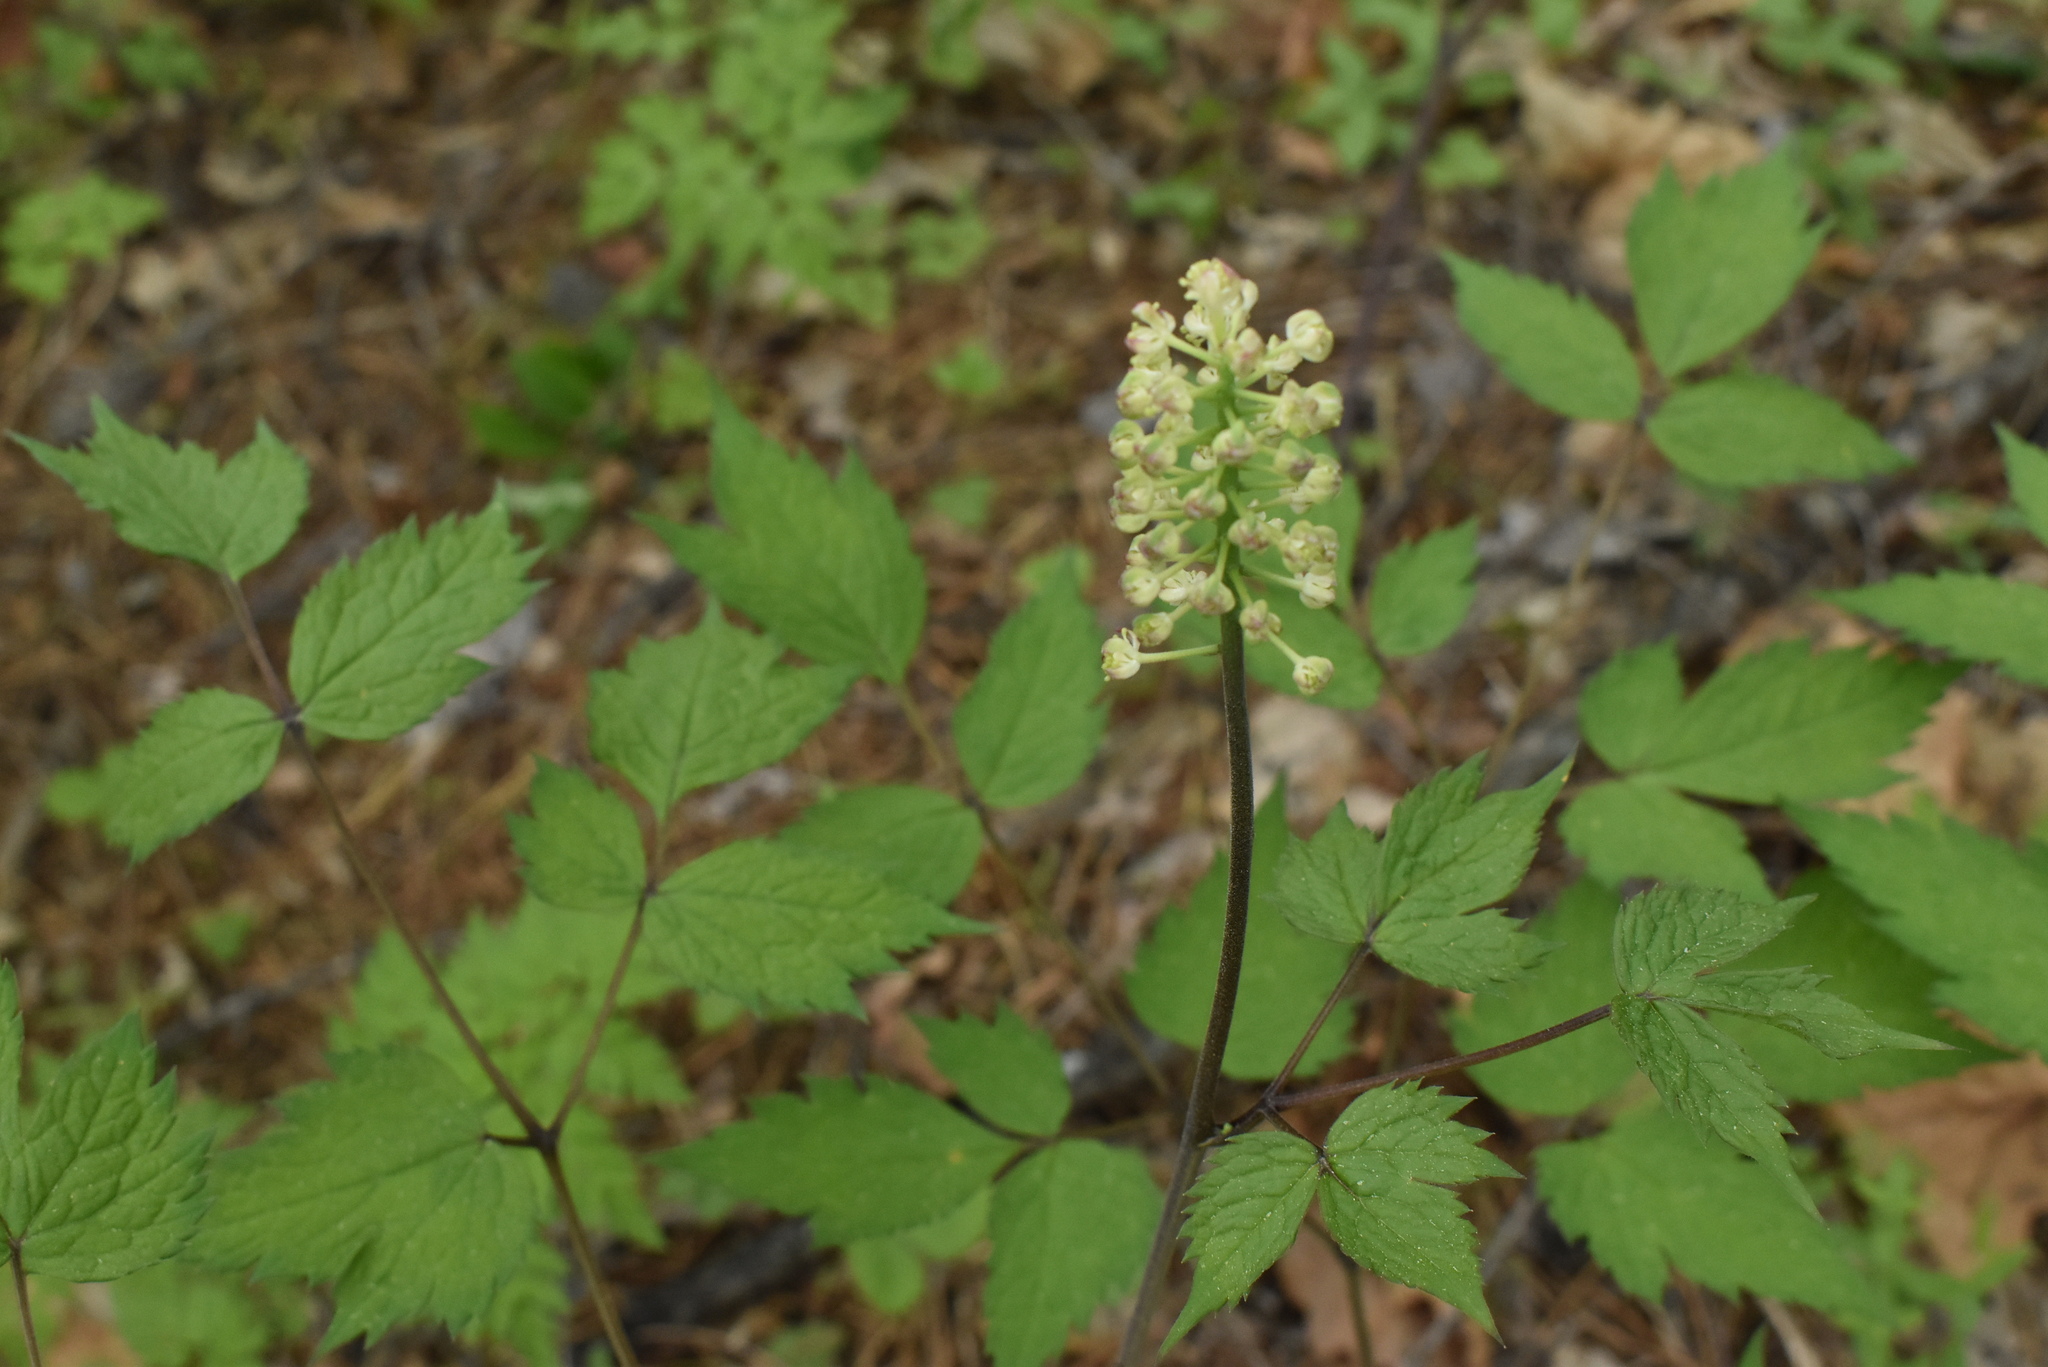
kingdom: Plantae
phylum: Tracheophyta
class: Magnoliopsida
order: Ranunculales
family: Ranunculaceae
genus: Actaea
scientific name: Actaea asiatica
